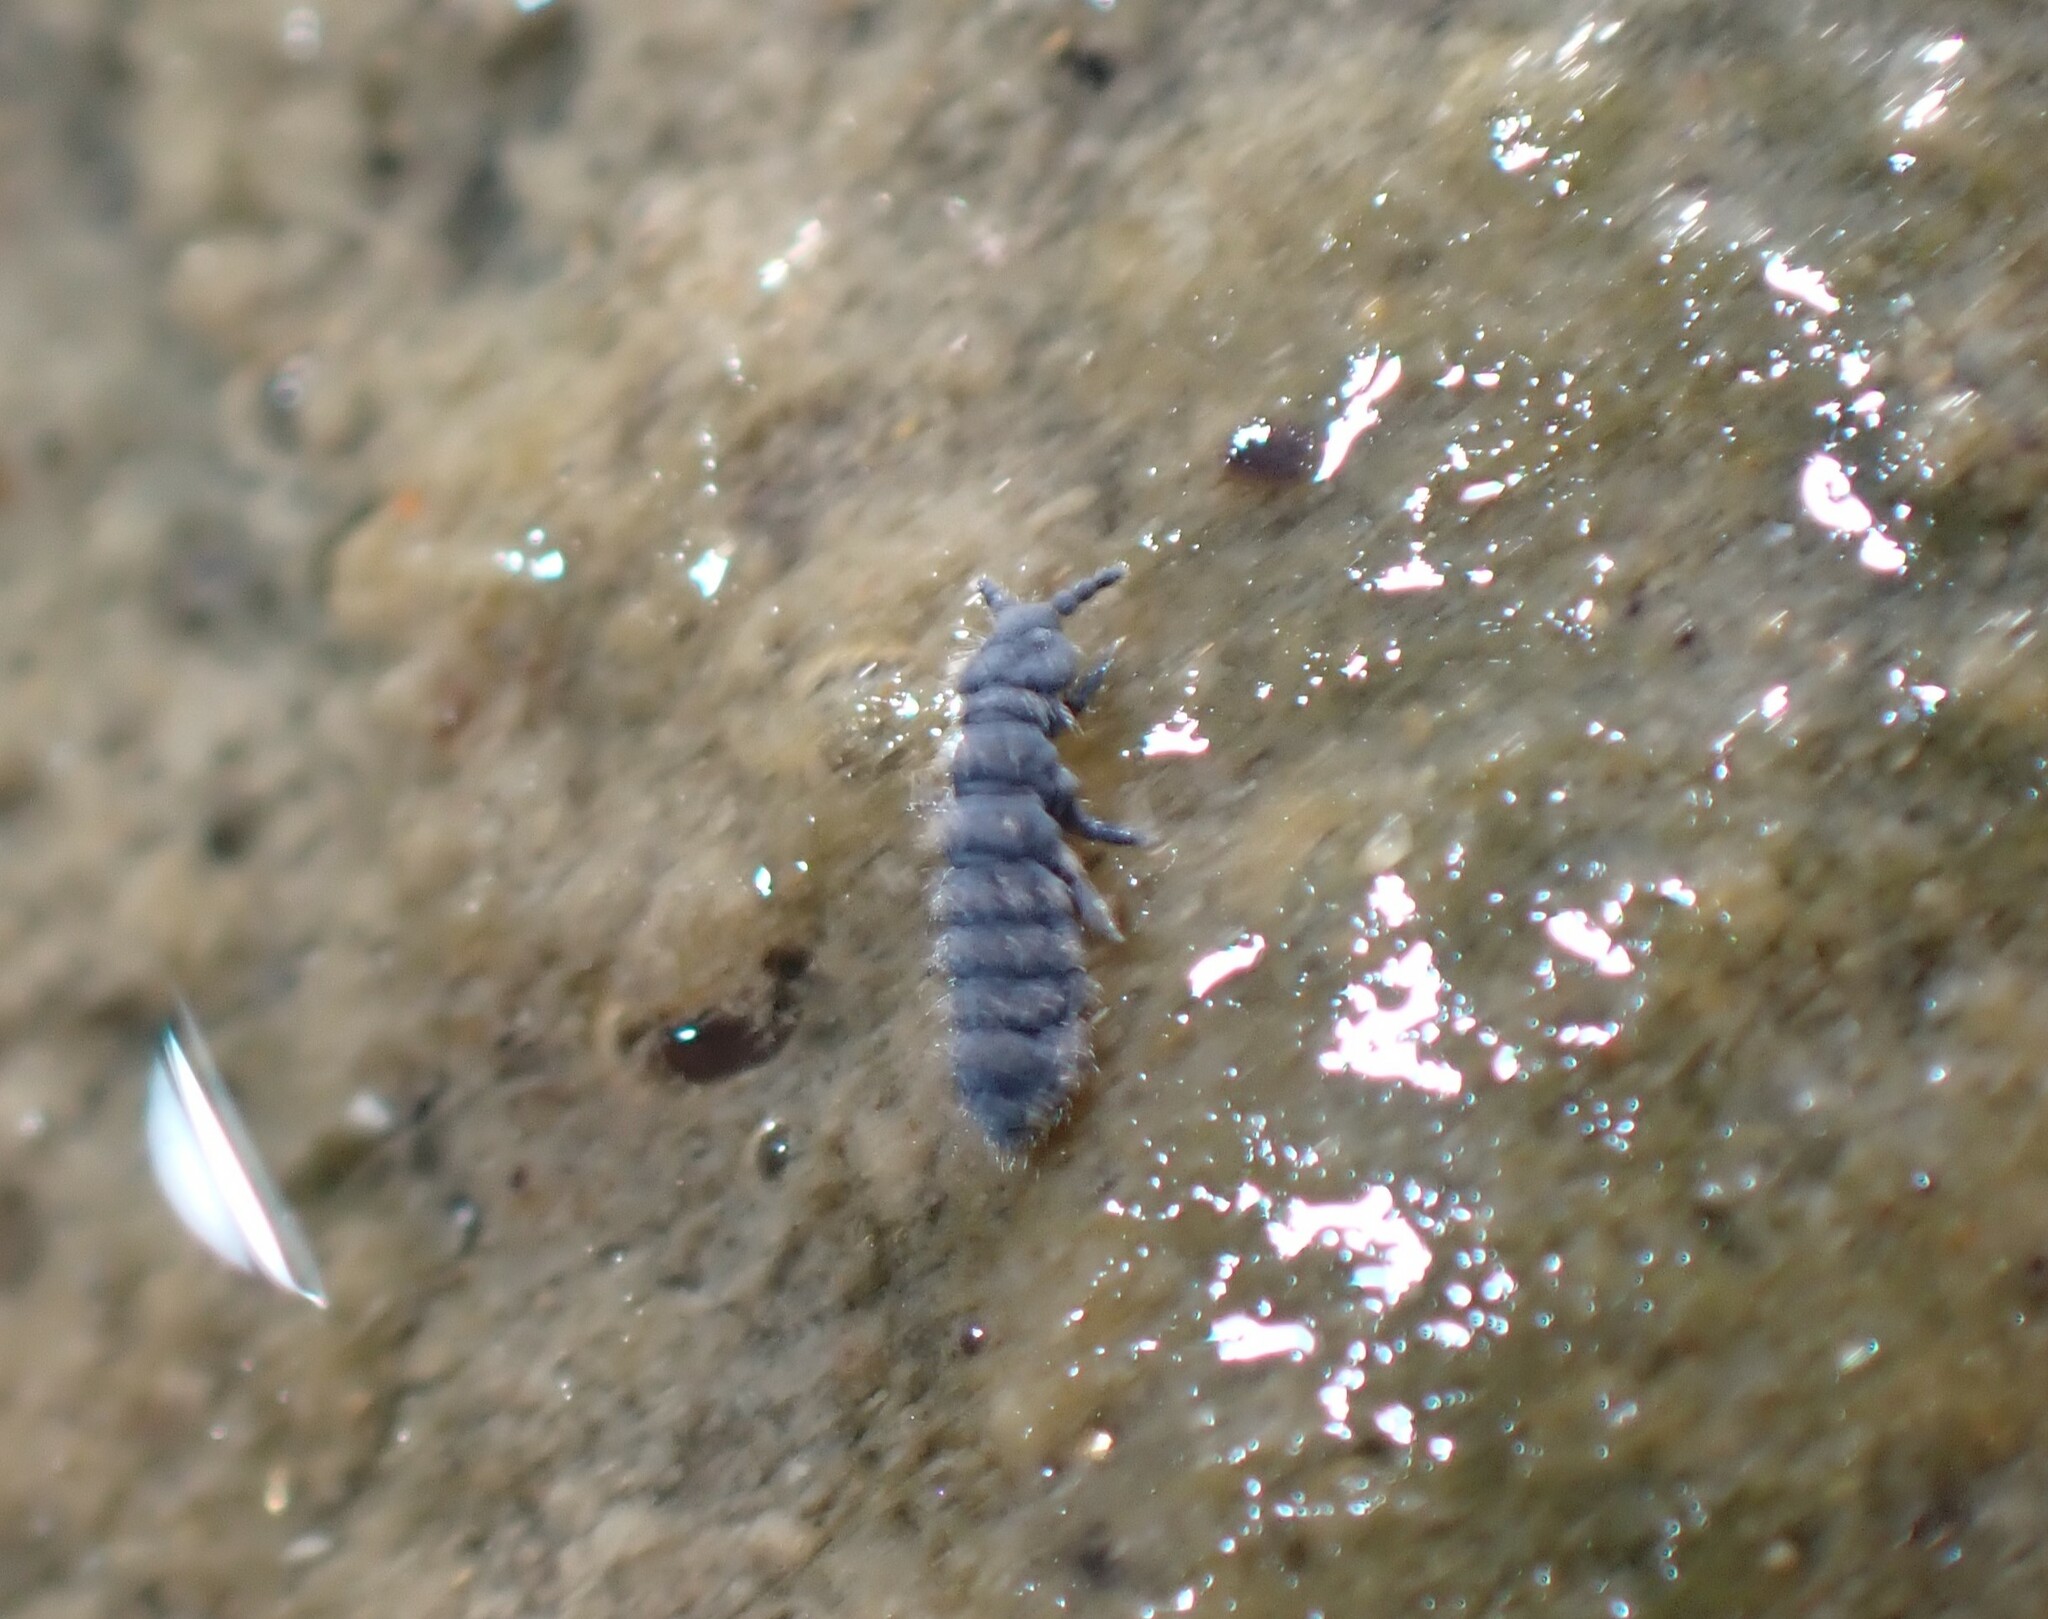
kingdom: Animalia
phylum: Arthropoda
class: Collembola
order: Poduromorpha
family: Neanuridae
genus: Anurida
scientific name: Anurida maritima
